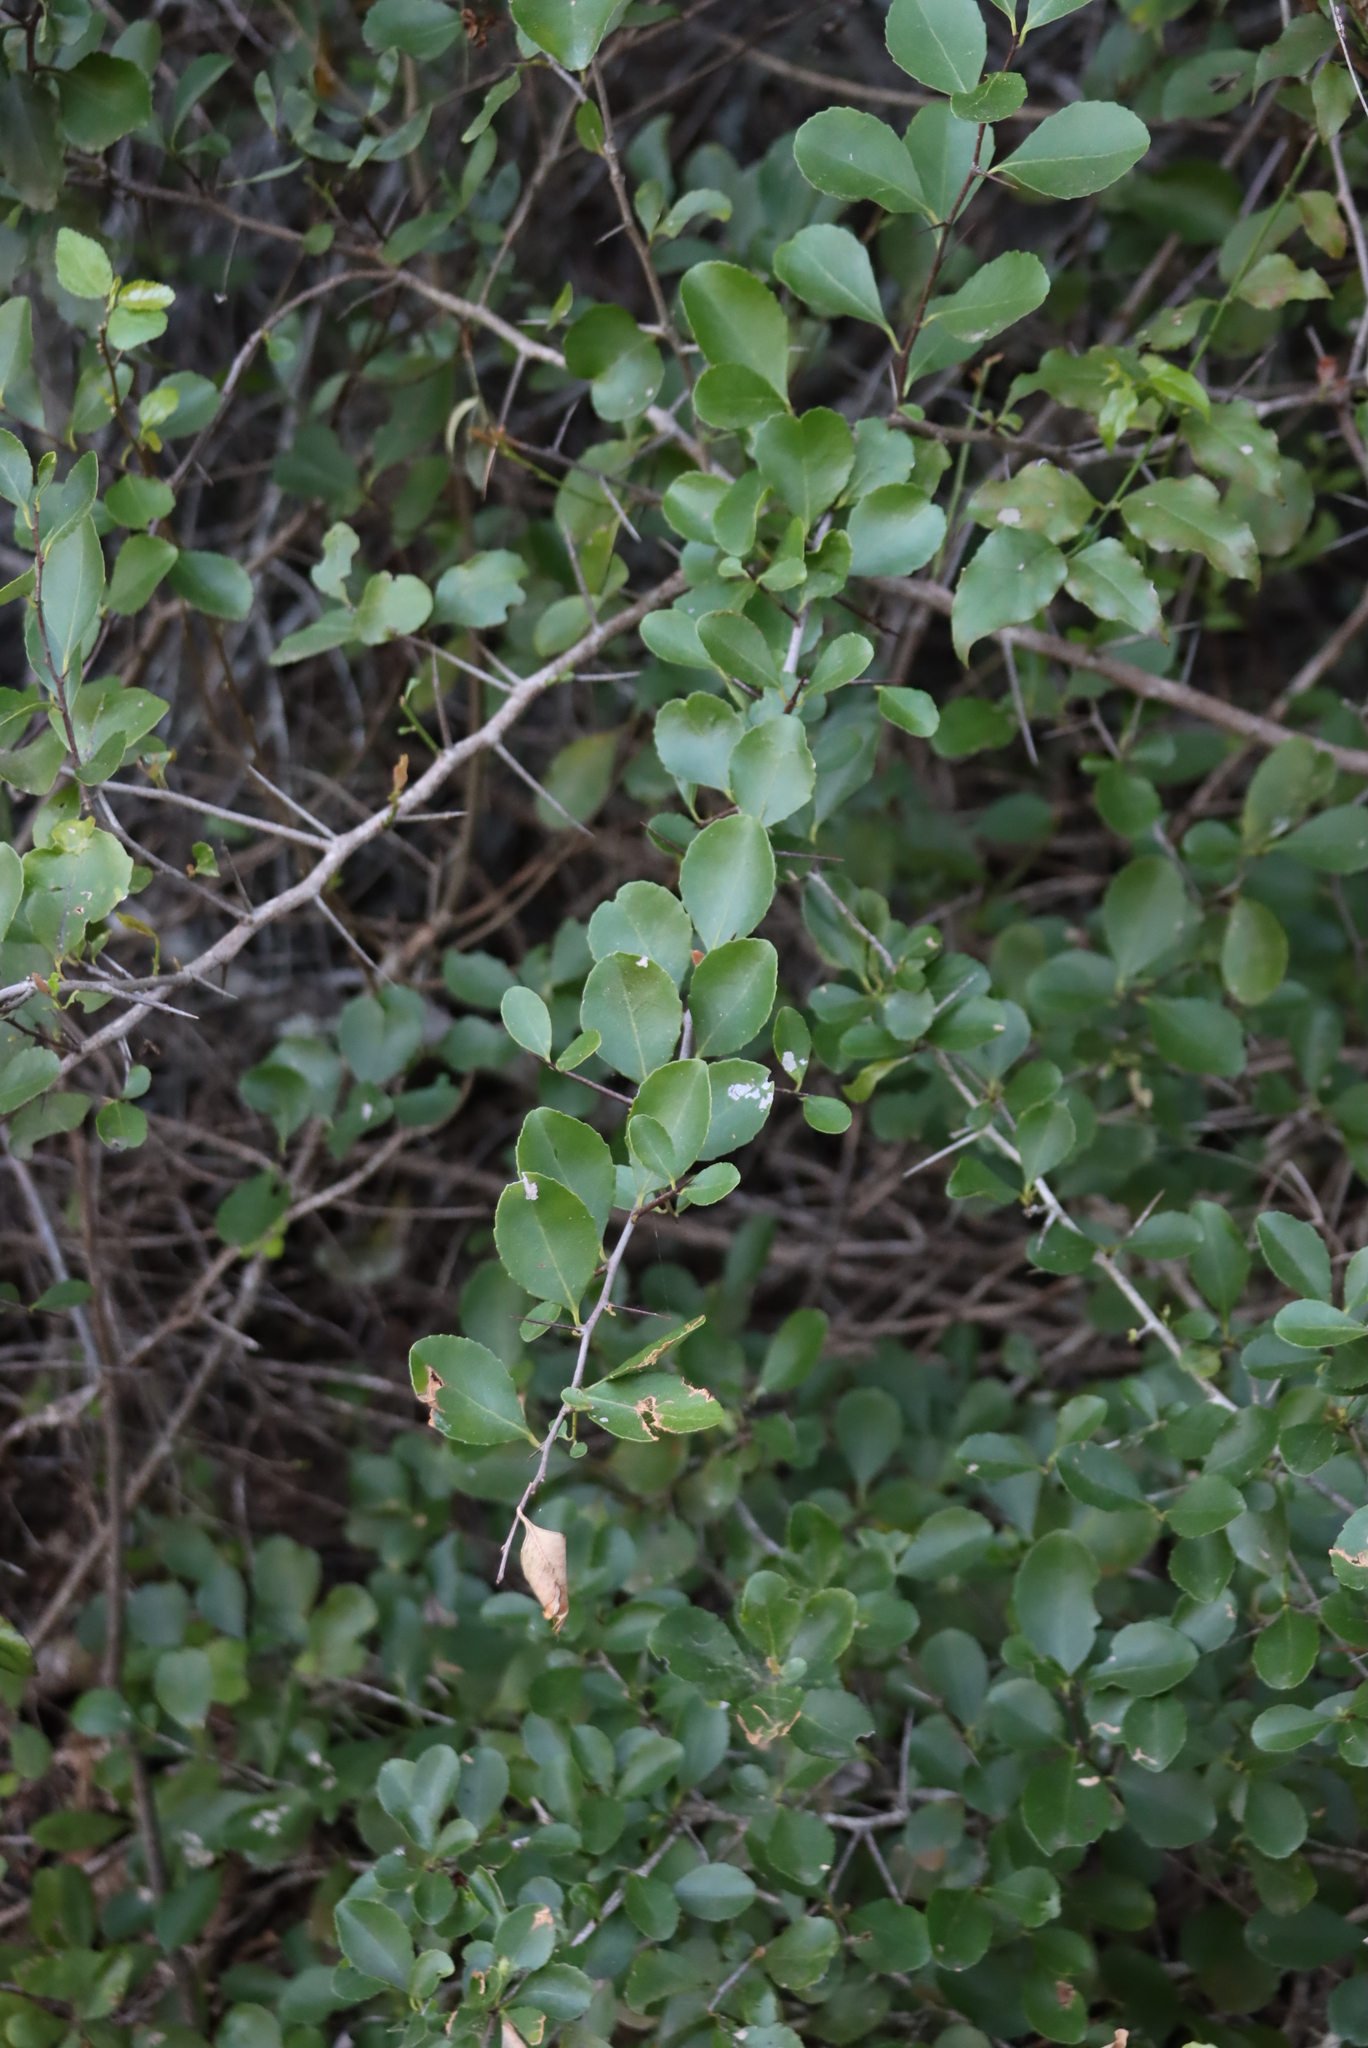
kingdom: Plantae
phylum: Tracheophyta
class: Magnoliopsida
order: Celastrales
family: Celastraceae
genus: Gymnosporia
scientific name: Gymnosporia nemorosa
